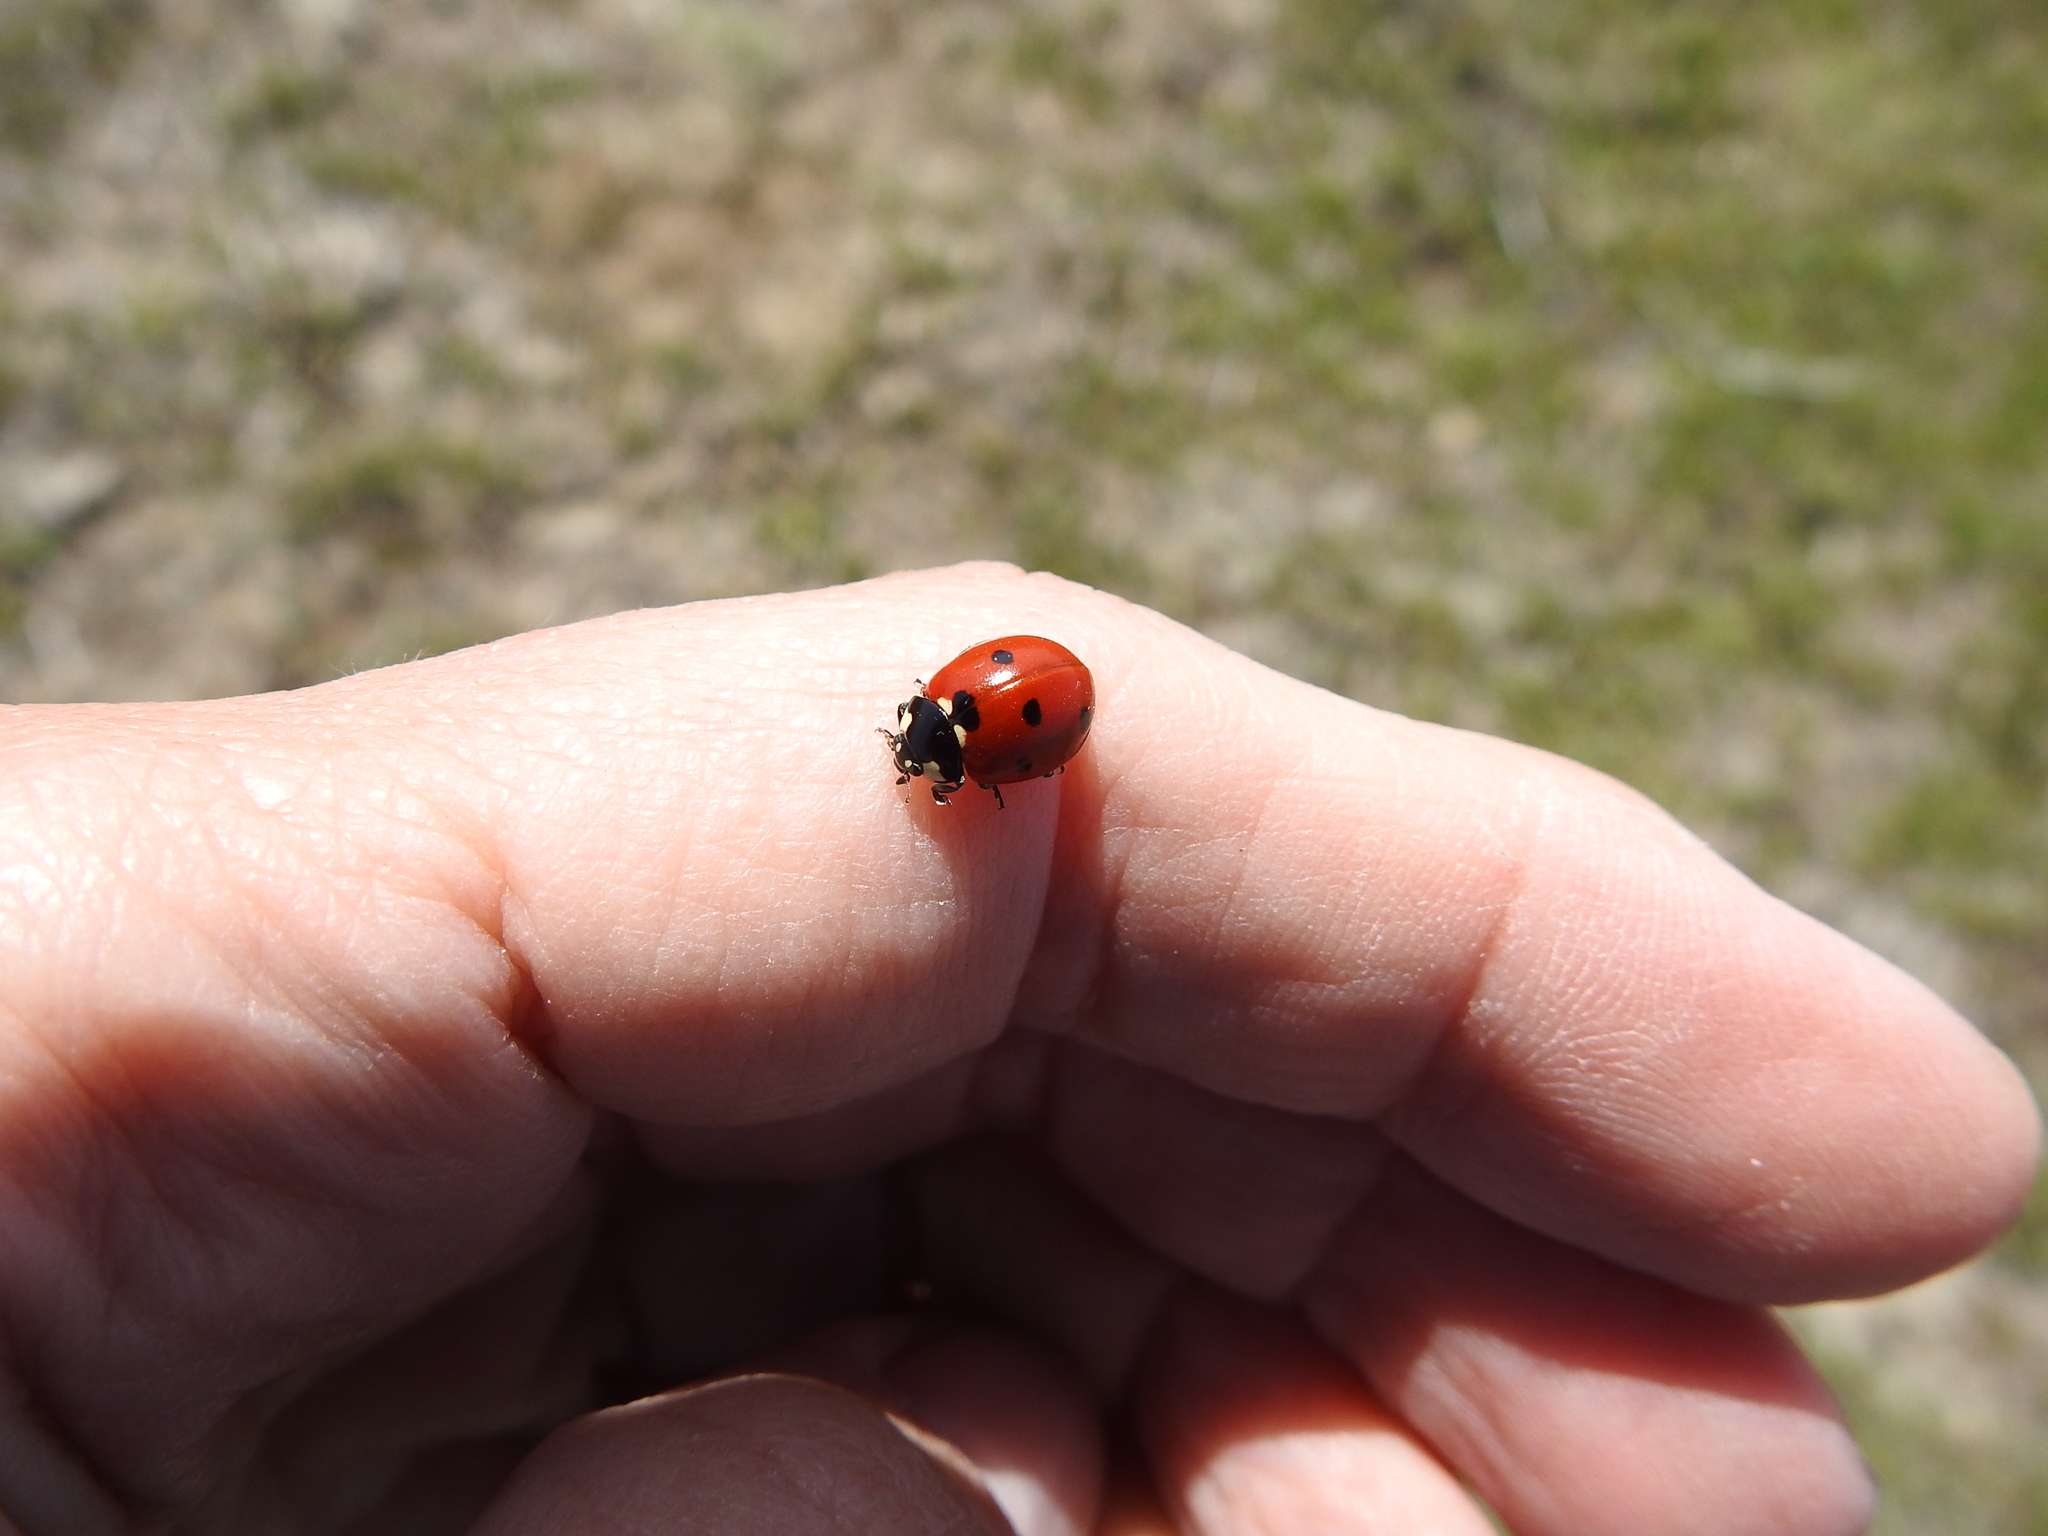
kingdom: Animalia
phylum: Arthropoda
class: Insecta
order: Coleoptera
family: Coccinellidae
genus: Coccinella
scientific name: Coccinella septempunctata
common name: Sevenspotted lady beetle
